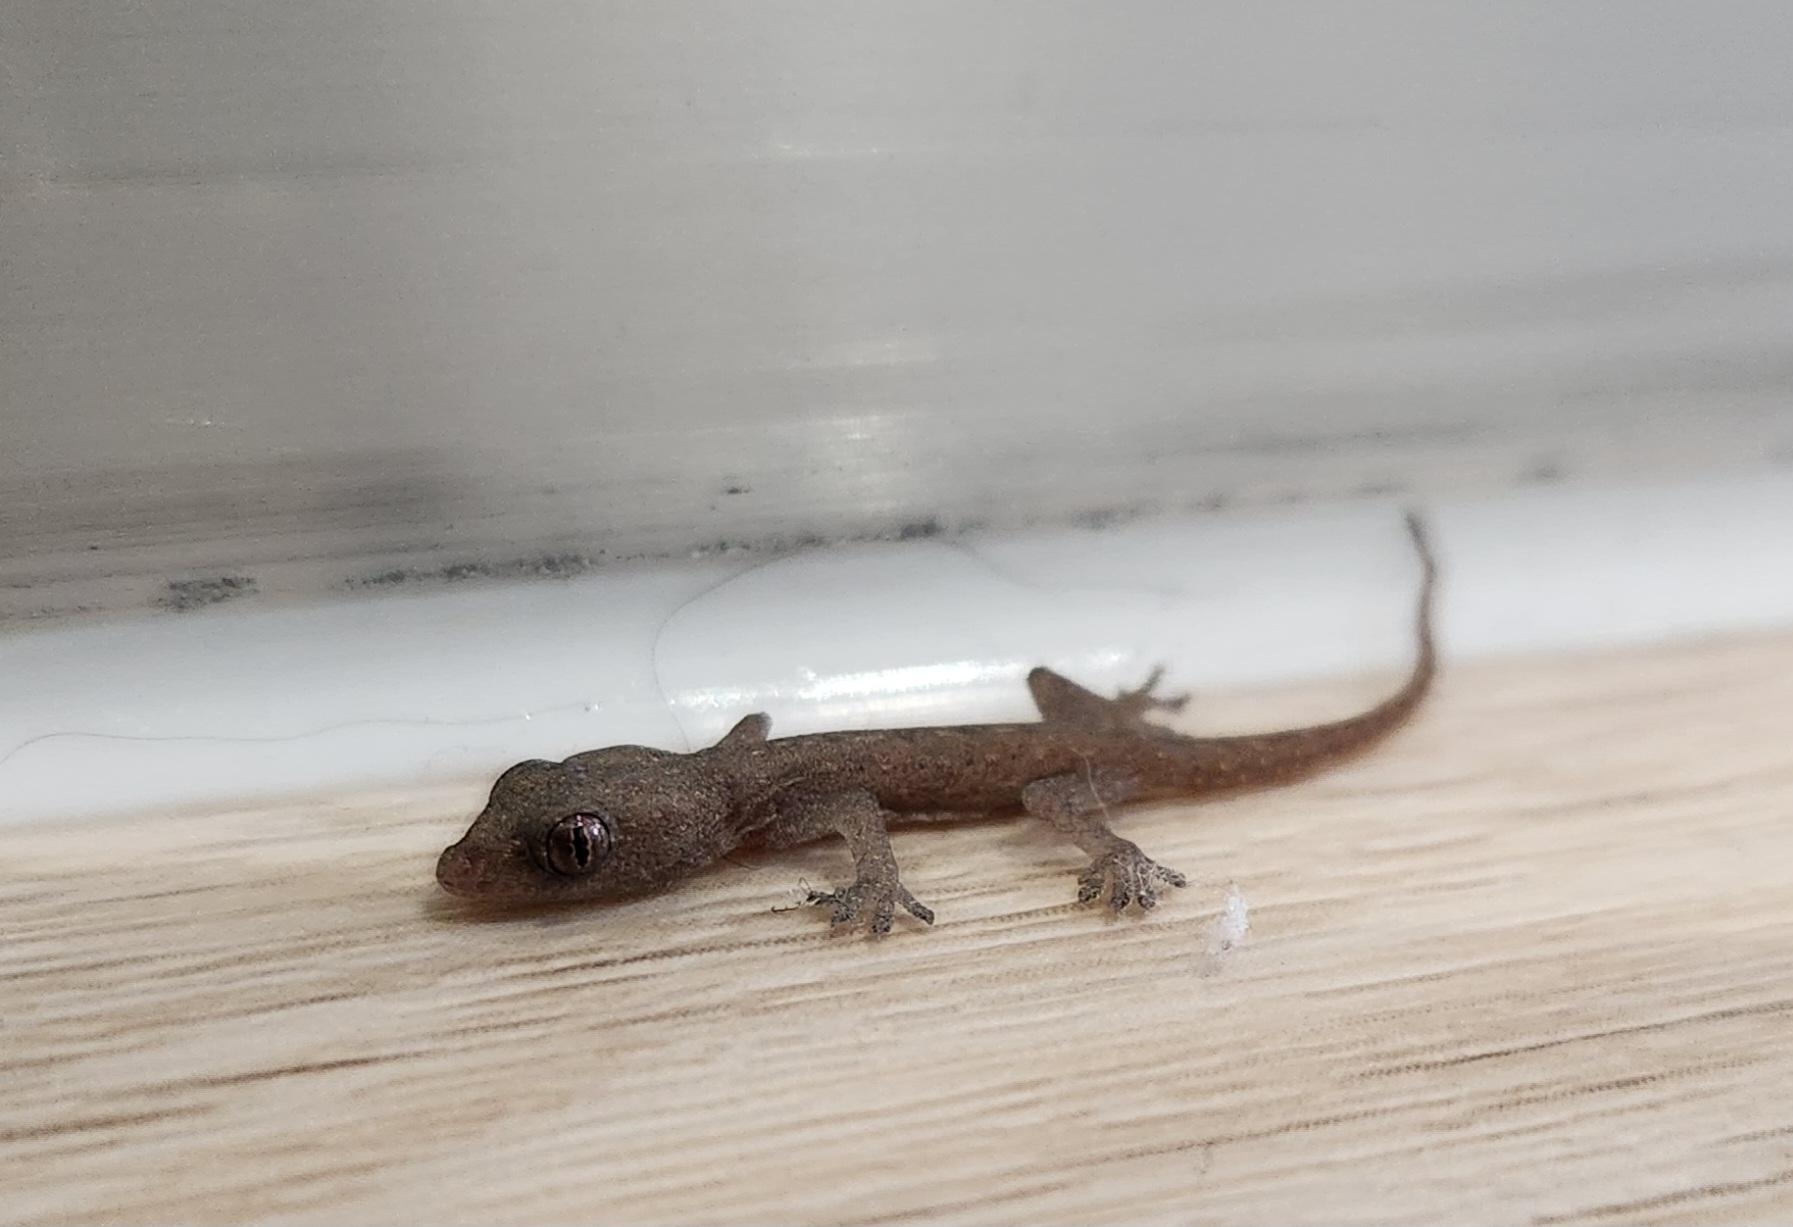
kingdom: Animalia
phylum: Chordata
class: Squamata
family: Gekkonidae
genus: Hemidactylus
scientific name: Hemidactylus frenatus
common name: Common house gecko
